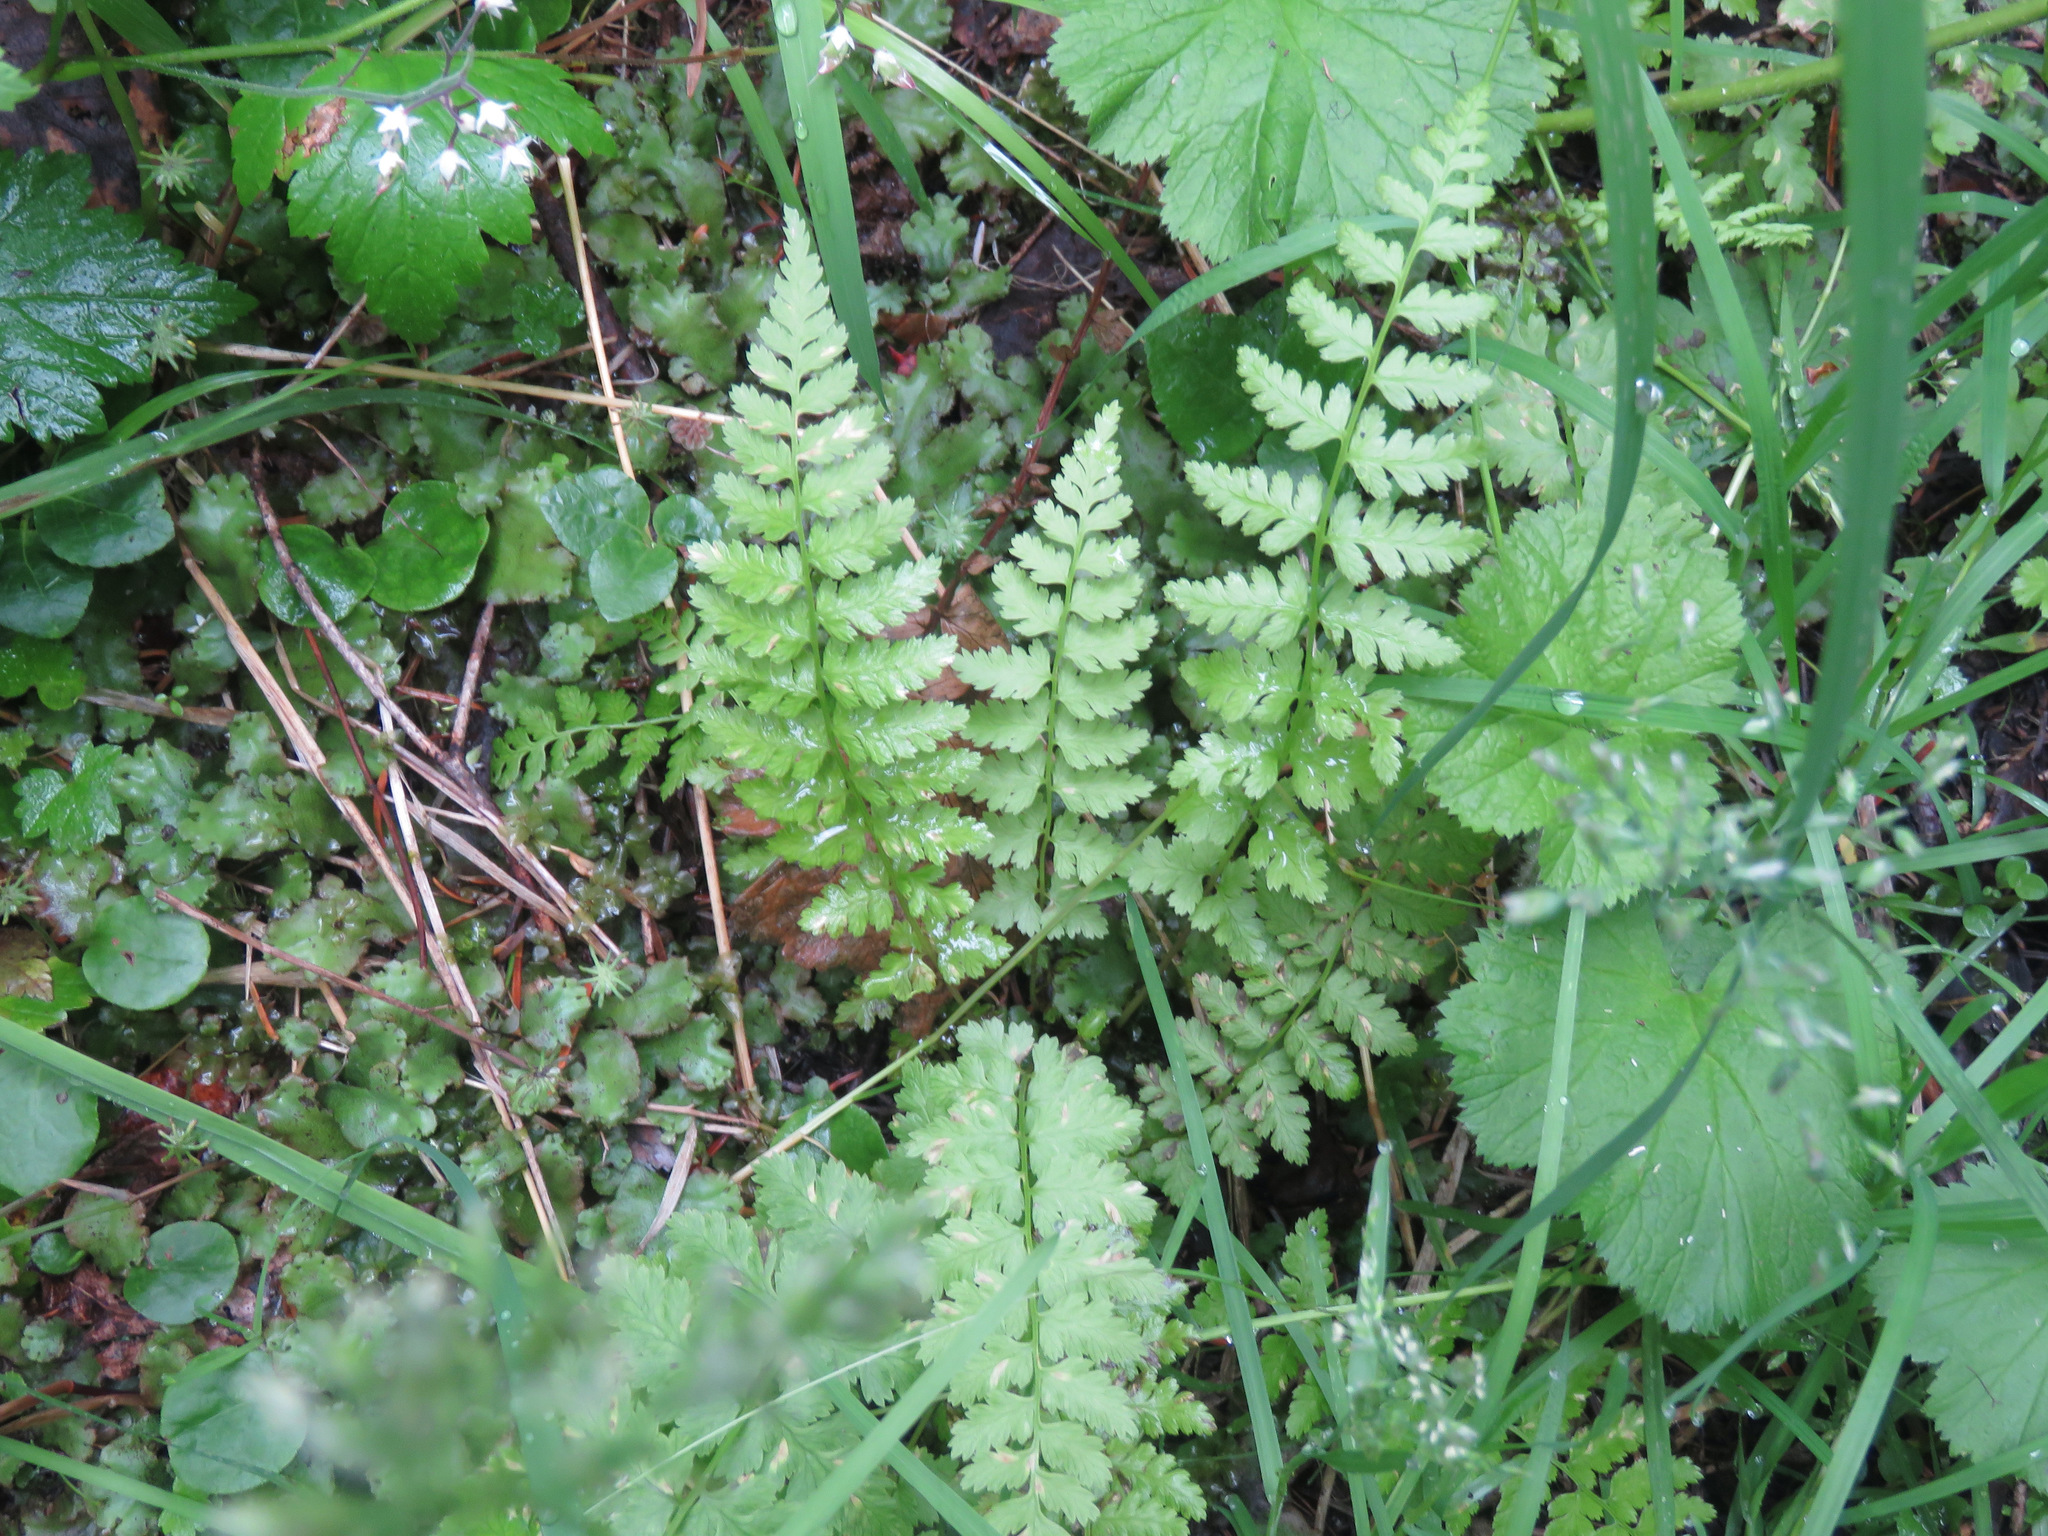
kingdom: Plantae
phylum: Tracheophyta
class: Polypodiopsida
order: Polypodiales
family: Athyriaceae
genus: Athyrium
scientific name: Athyrium filix-femina
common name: Lady fern
